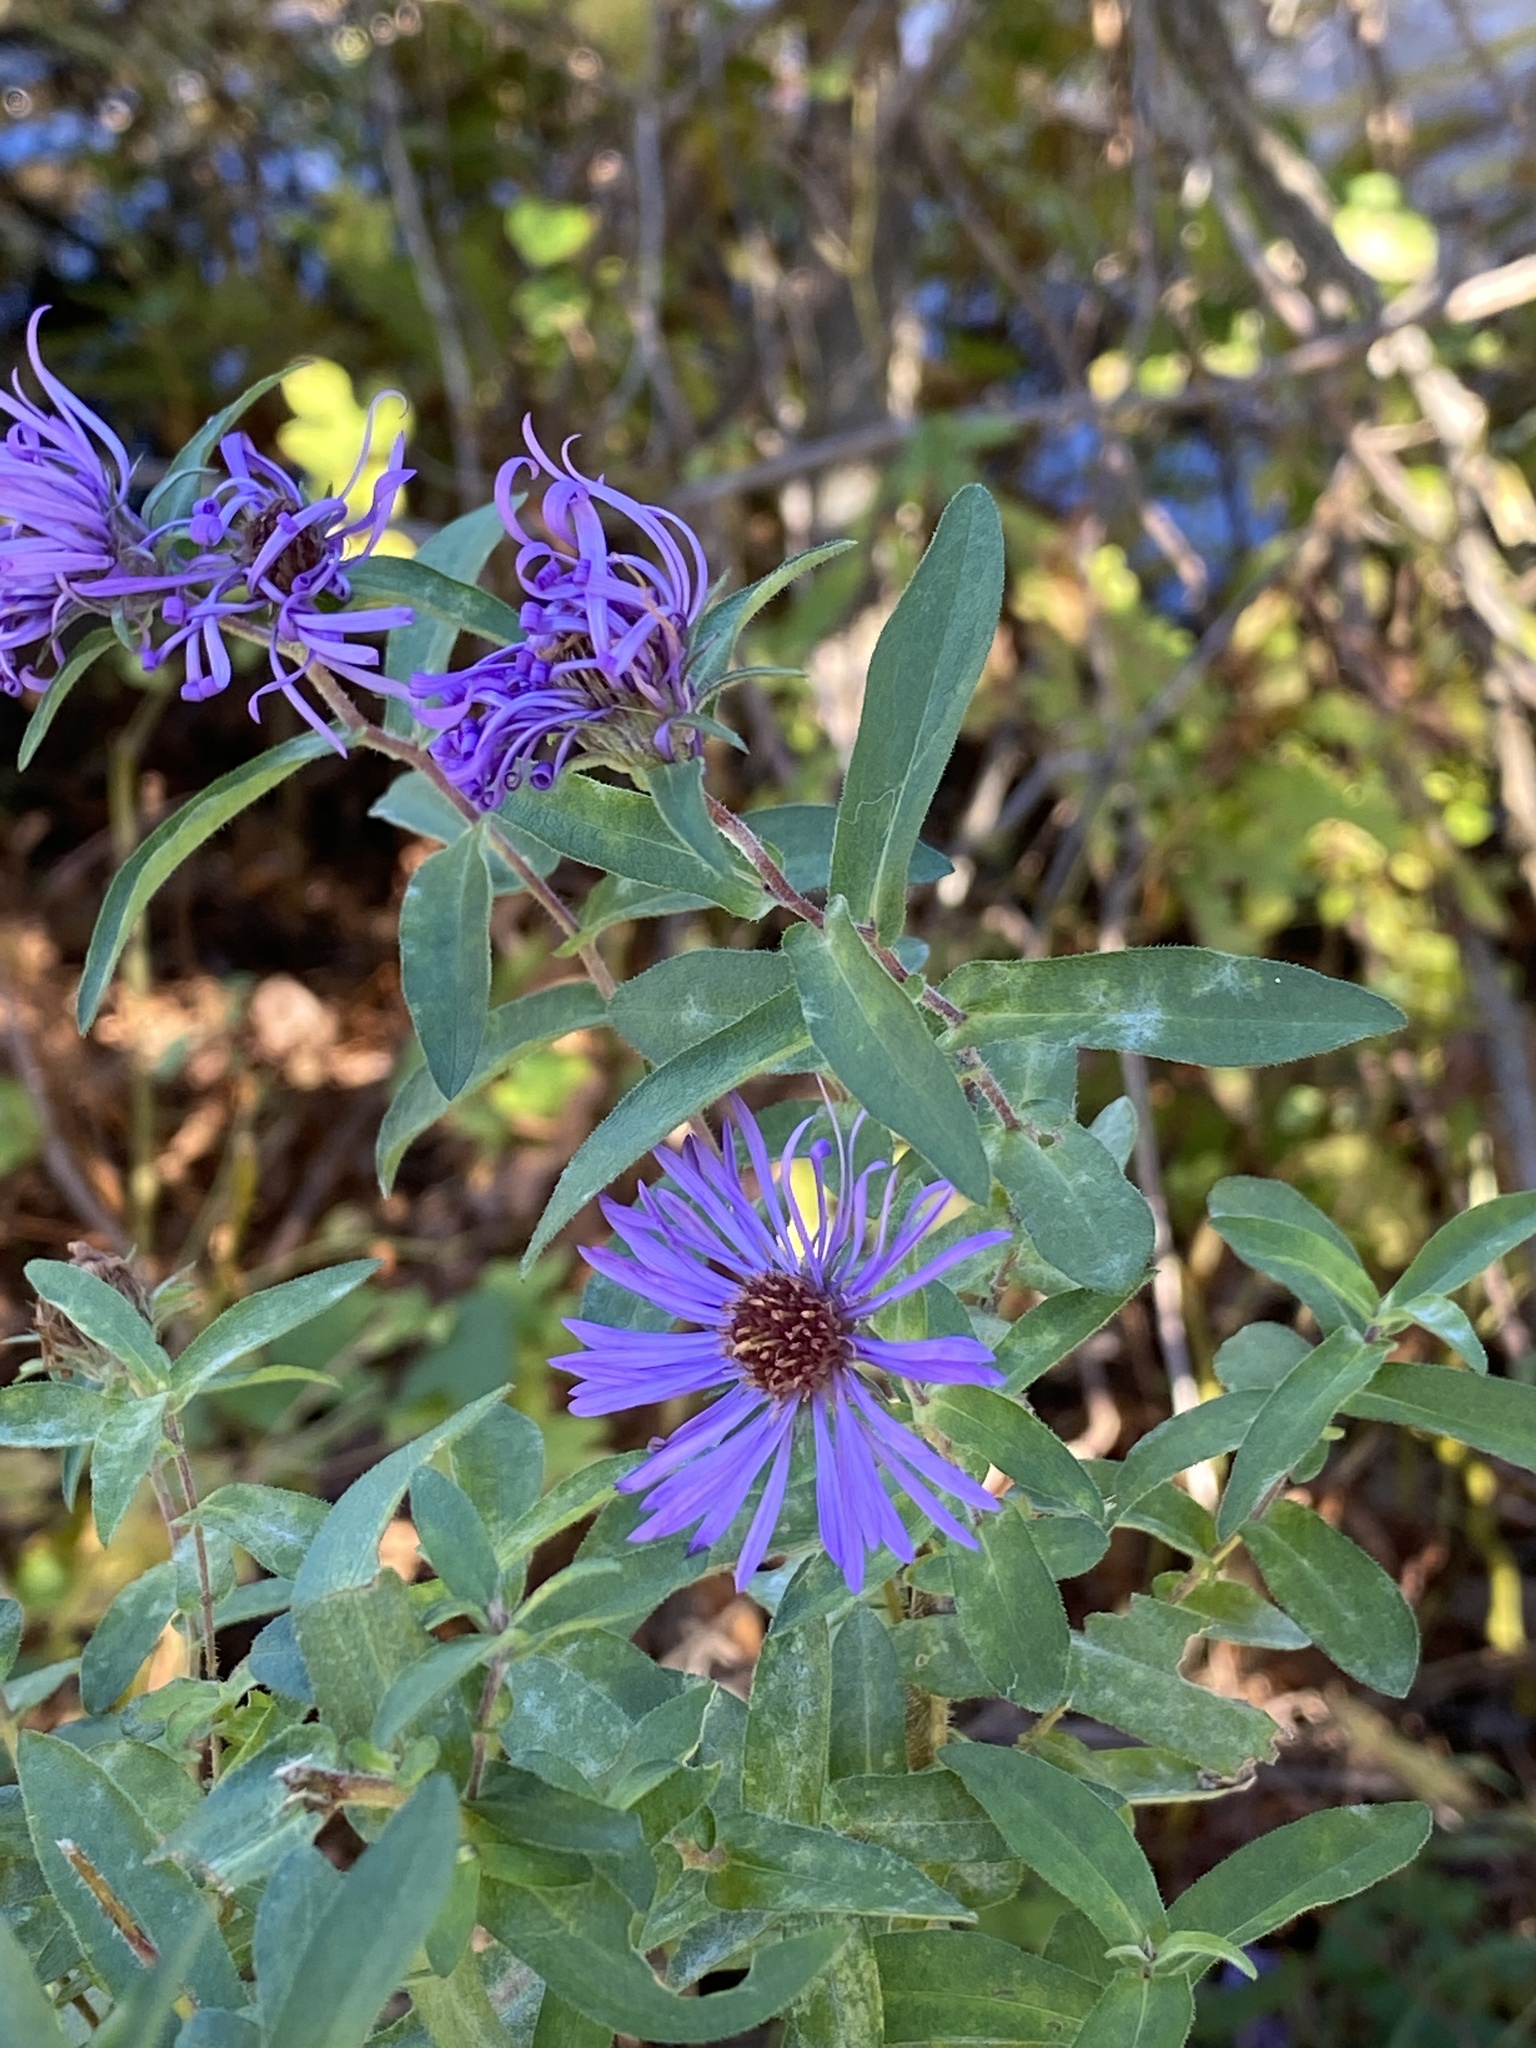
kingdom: Plantae
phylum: Tracheophyta
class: Magnoliopsida
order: Asterales
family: Asteraceae
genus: Symphyotrichum
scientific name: Symphyotrichum novae-angliae
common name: Michaelmas daisy
